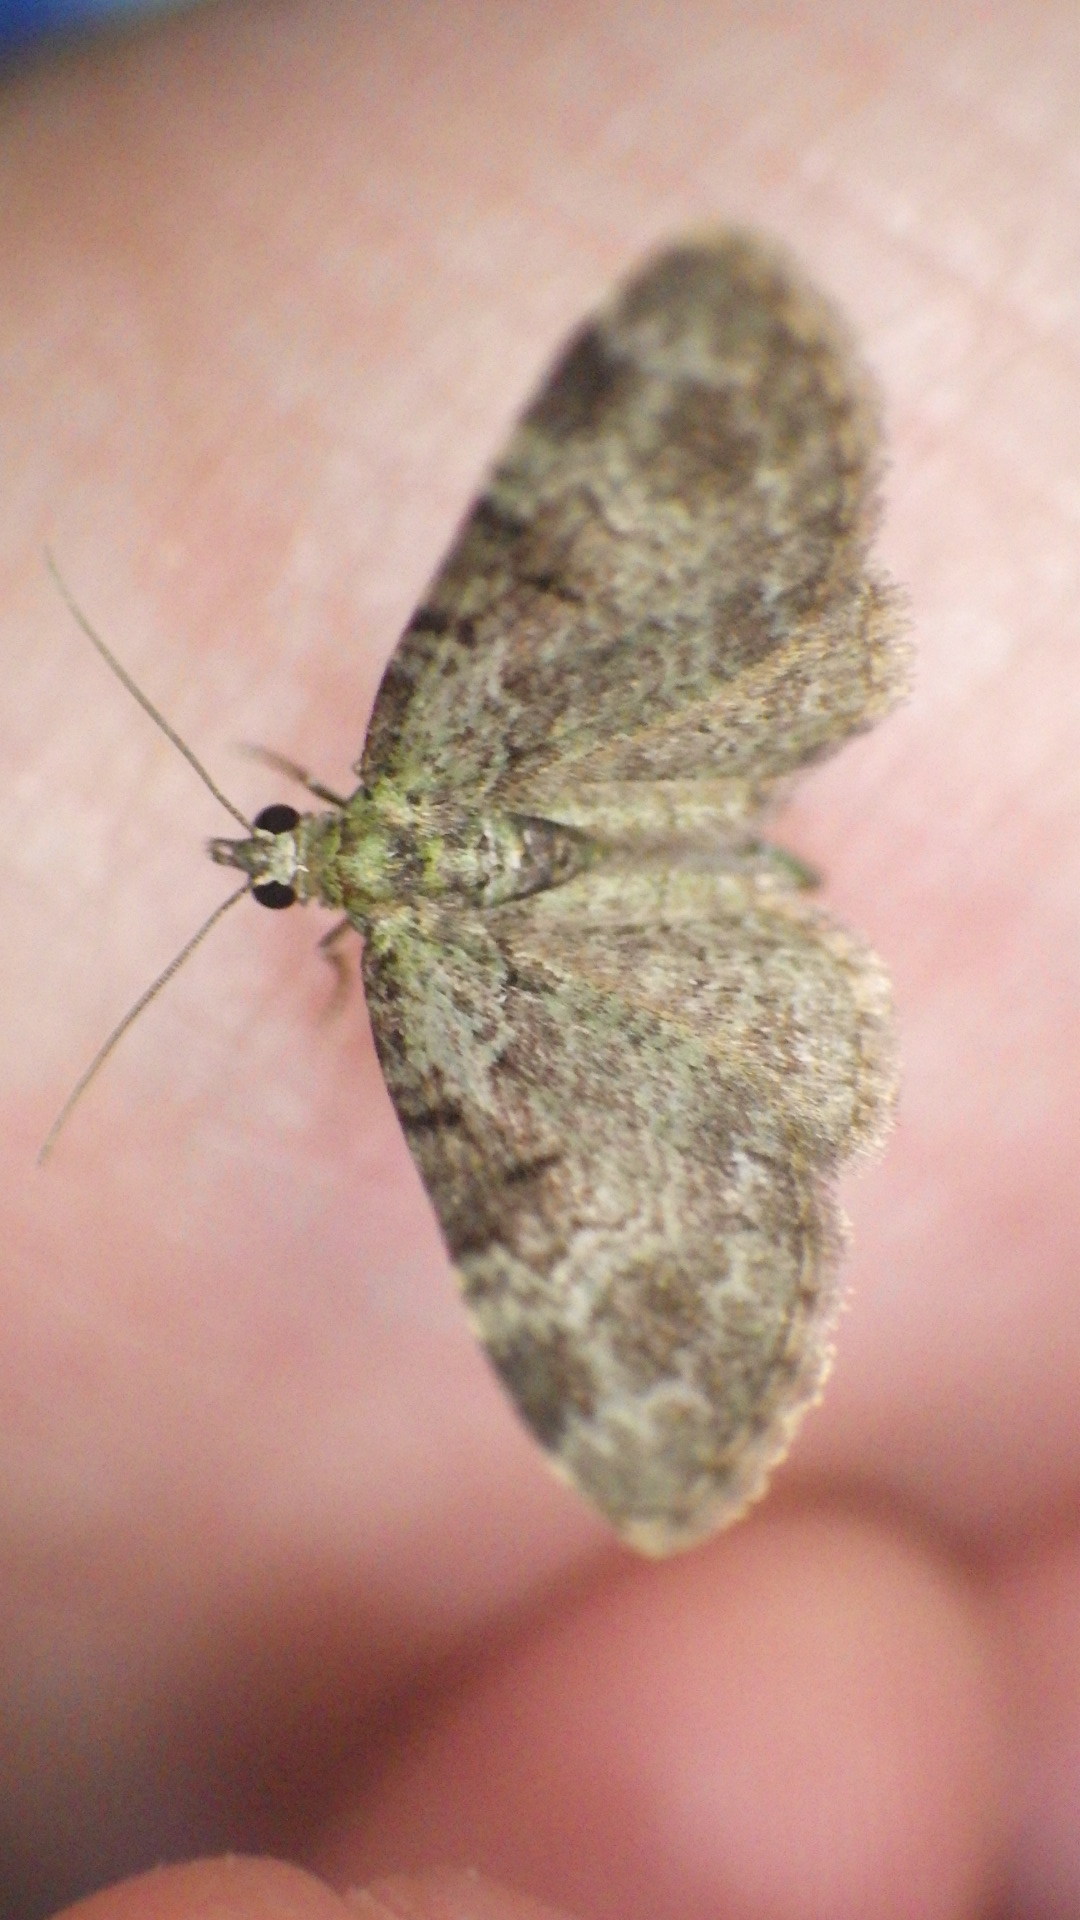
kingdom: Animalia
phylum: Arthropoda
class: Insecta
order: Lepidoptera
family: Geometridae
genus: Pasiphila
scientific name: Pasiphila rectangulata
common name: Green pug
